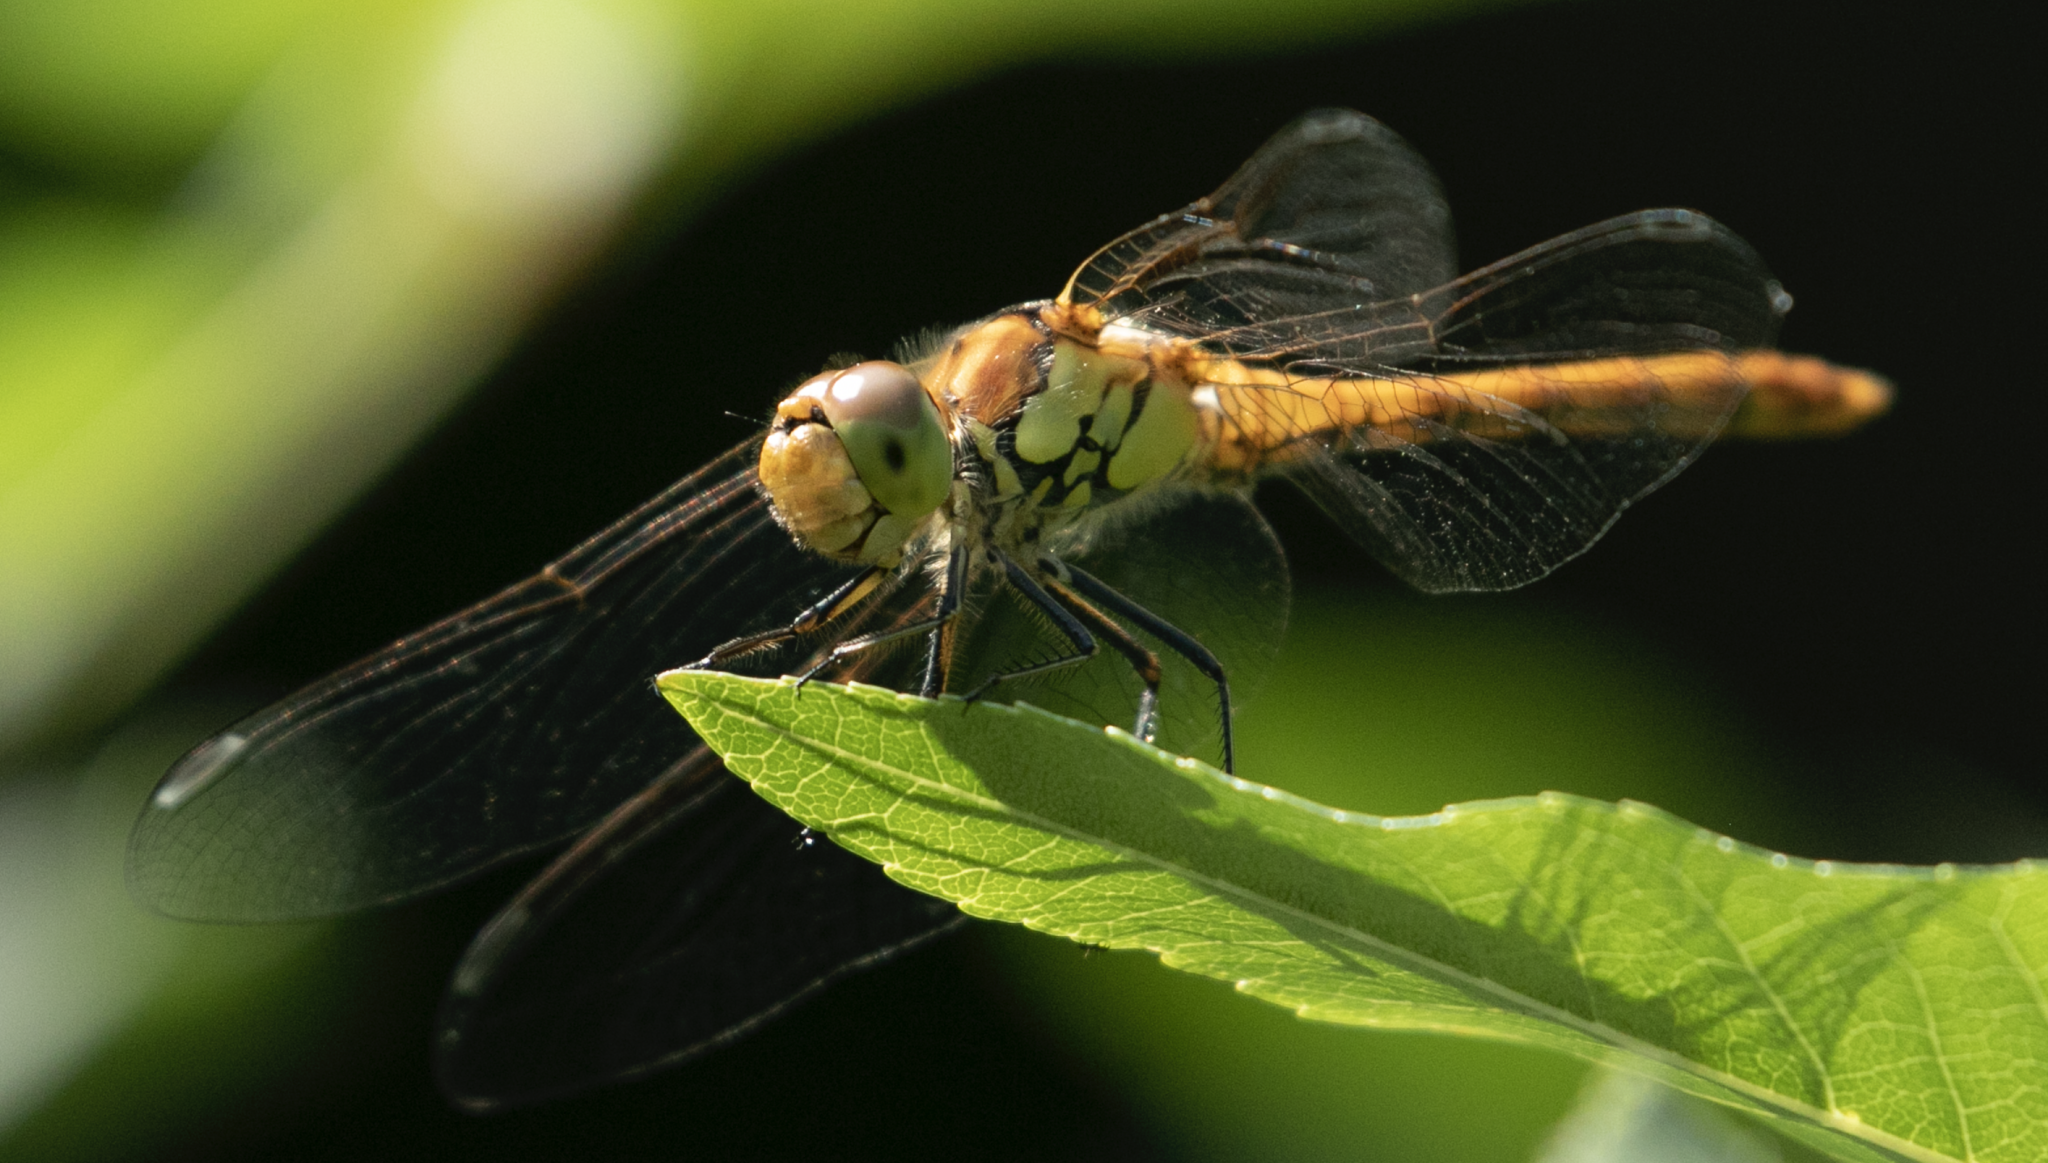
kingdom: Animalia
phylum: Arthropoda
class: Insecta
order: Odonata
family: Libellulidae
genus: Sympetrum
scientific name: Sympetrum striolatum
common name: Common darter
